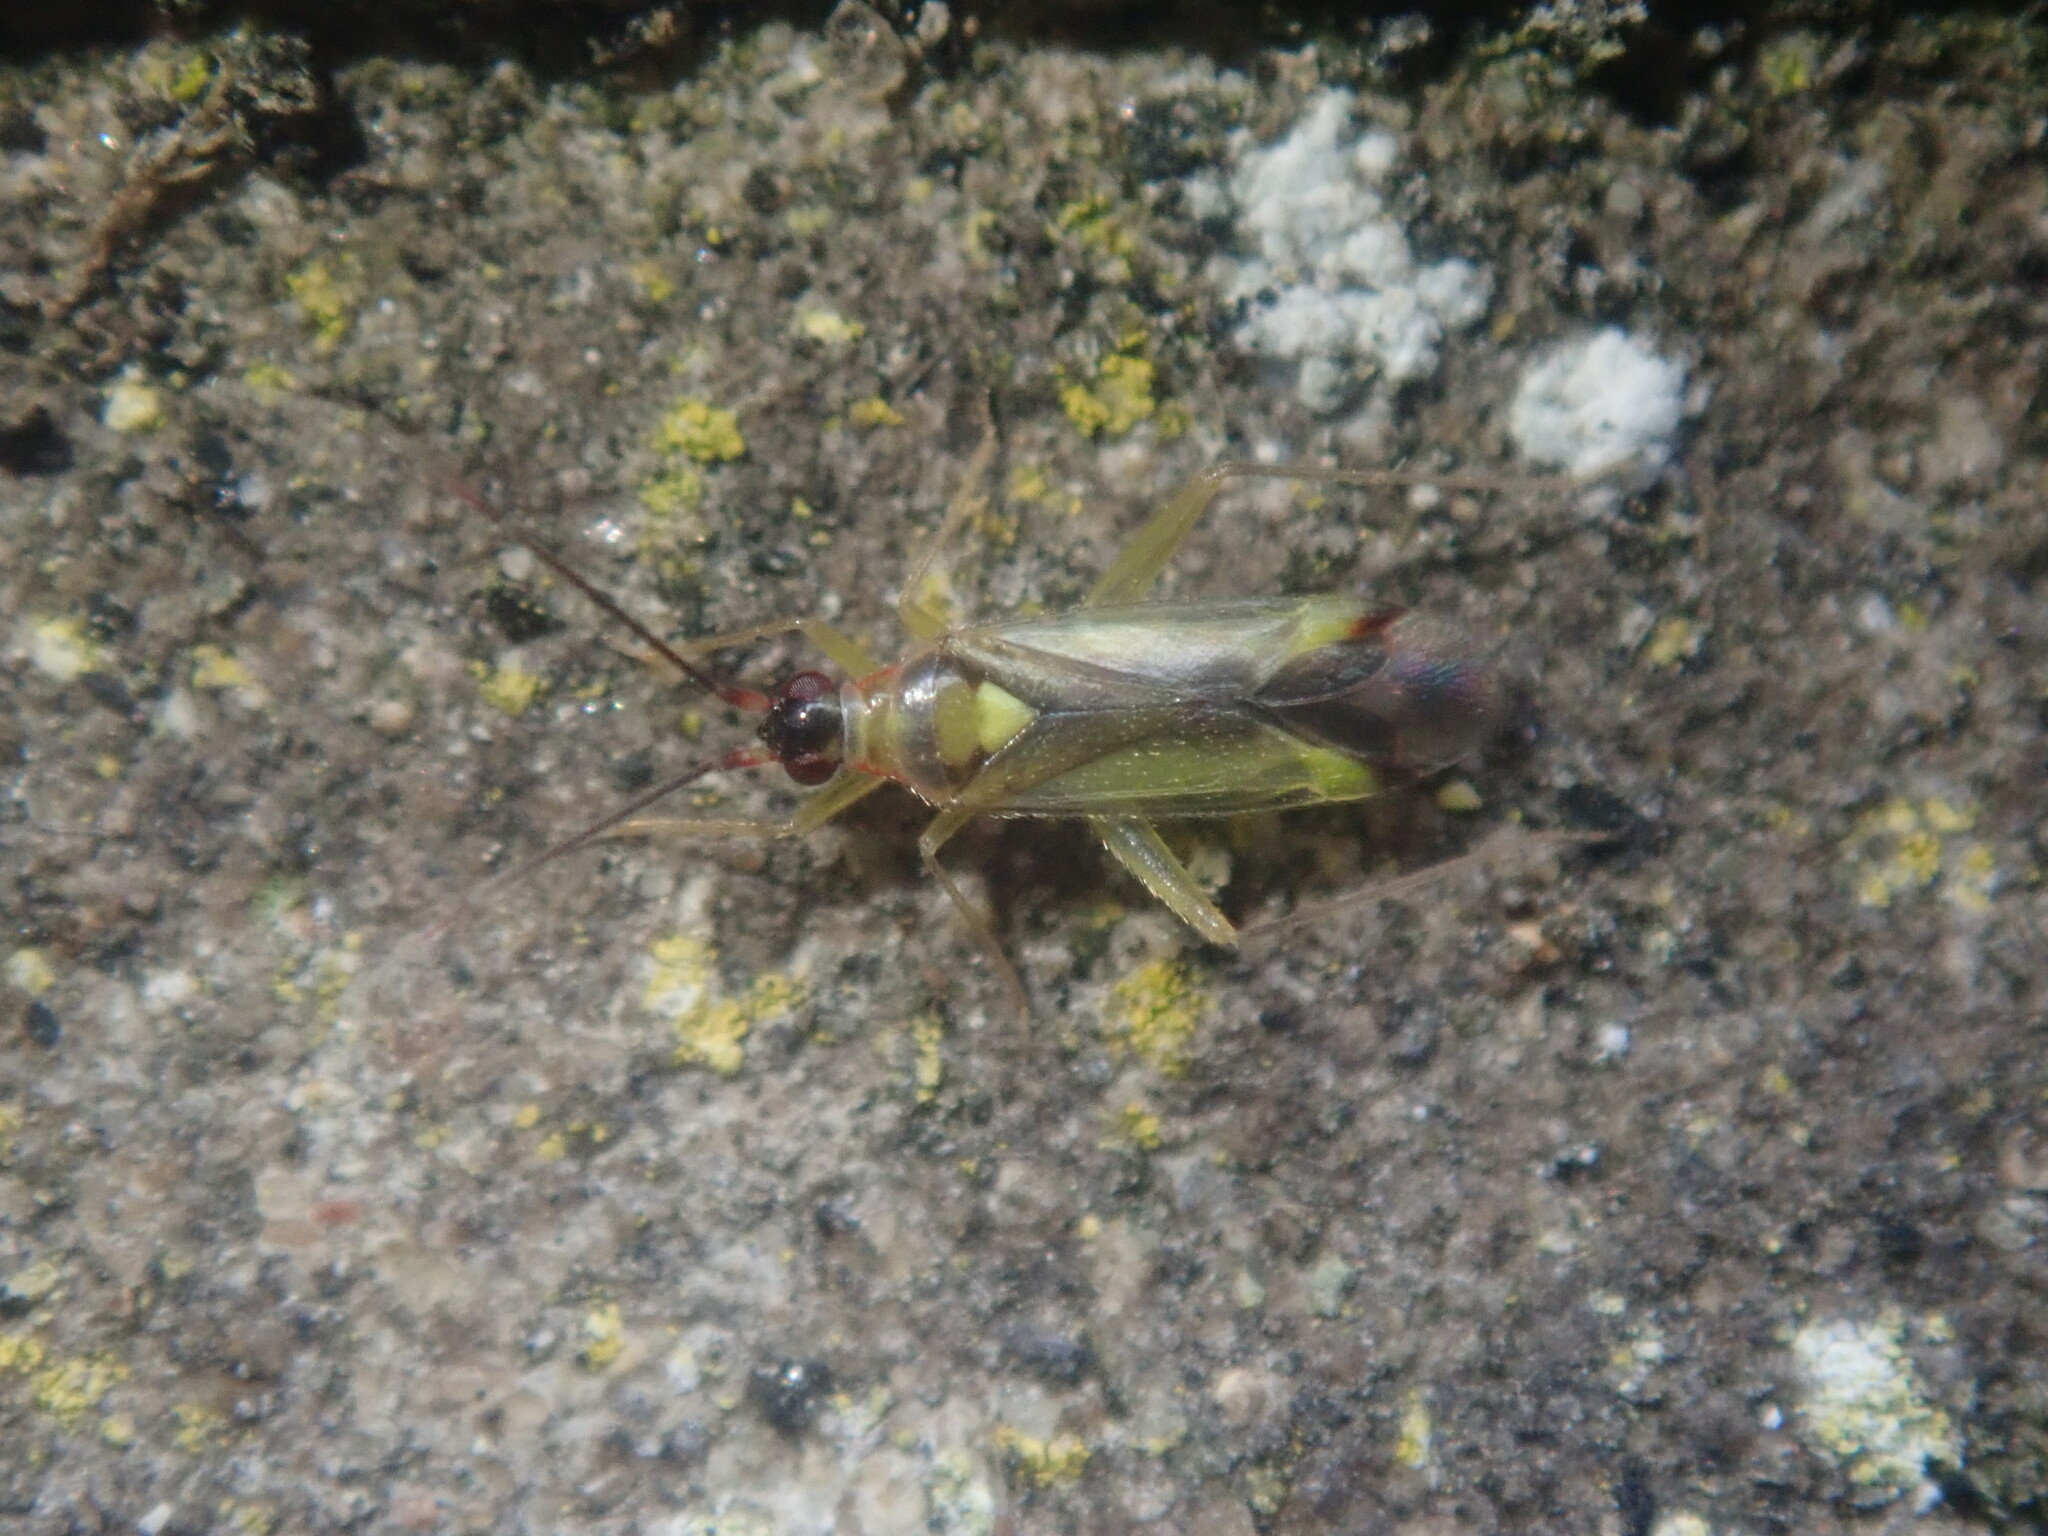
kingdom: Animalia
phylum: Arthropoda
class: Insecta
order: Hemiptera
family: Miridae
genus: Campyloneura
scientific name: Campyloneura virgula
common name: Predatory bug
